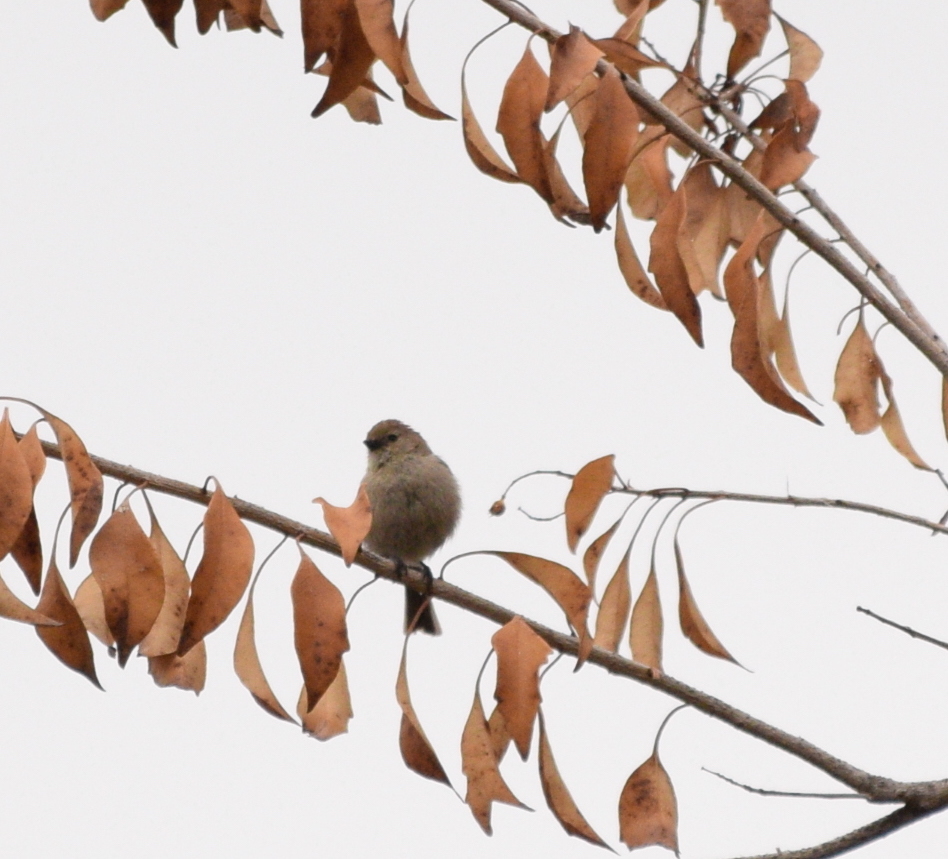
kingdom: Animalia
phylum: Chordata
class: Aves
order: Passeriformes
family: Aegithalidae
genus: Psaltriparus
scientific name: Psaltriparus minimus
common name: American bushtit
